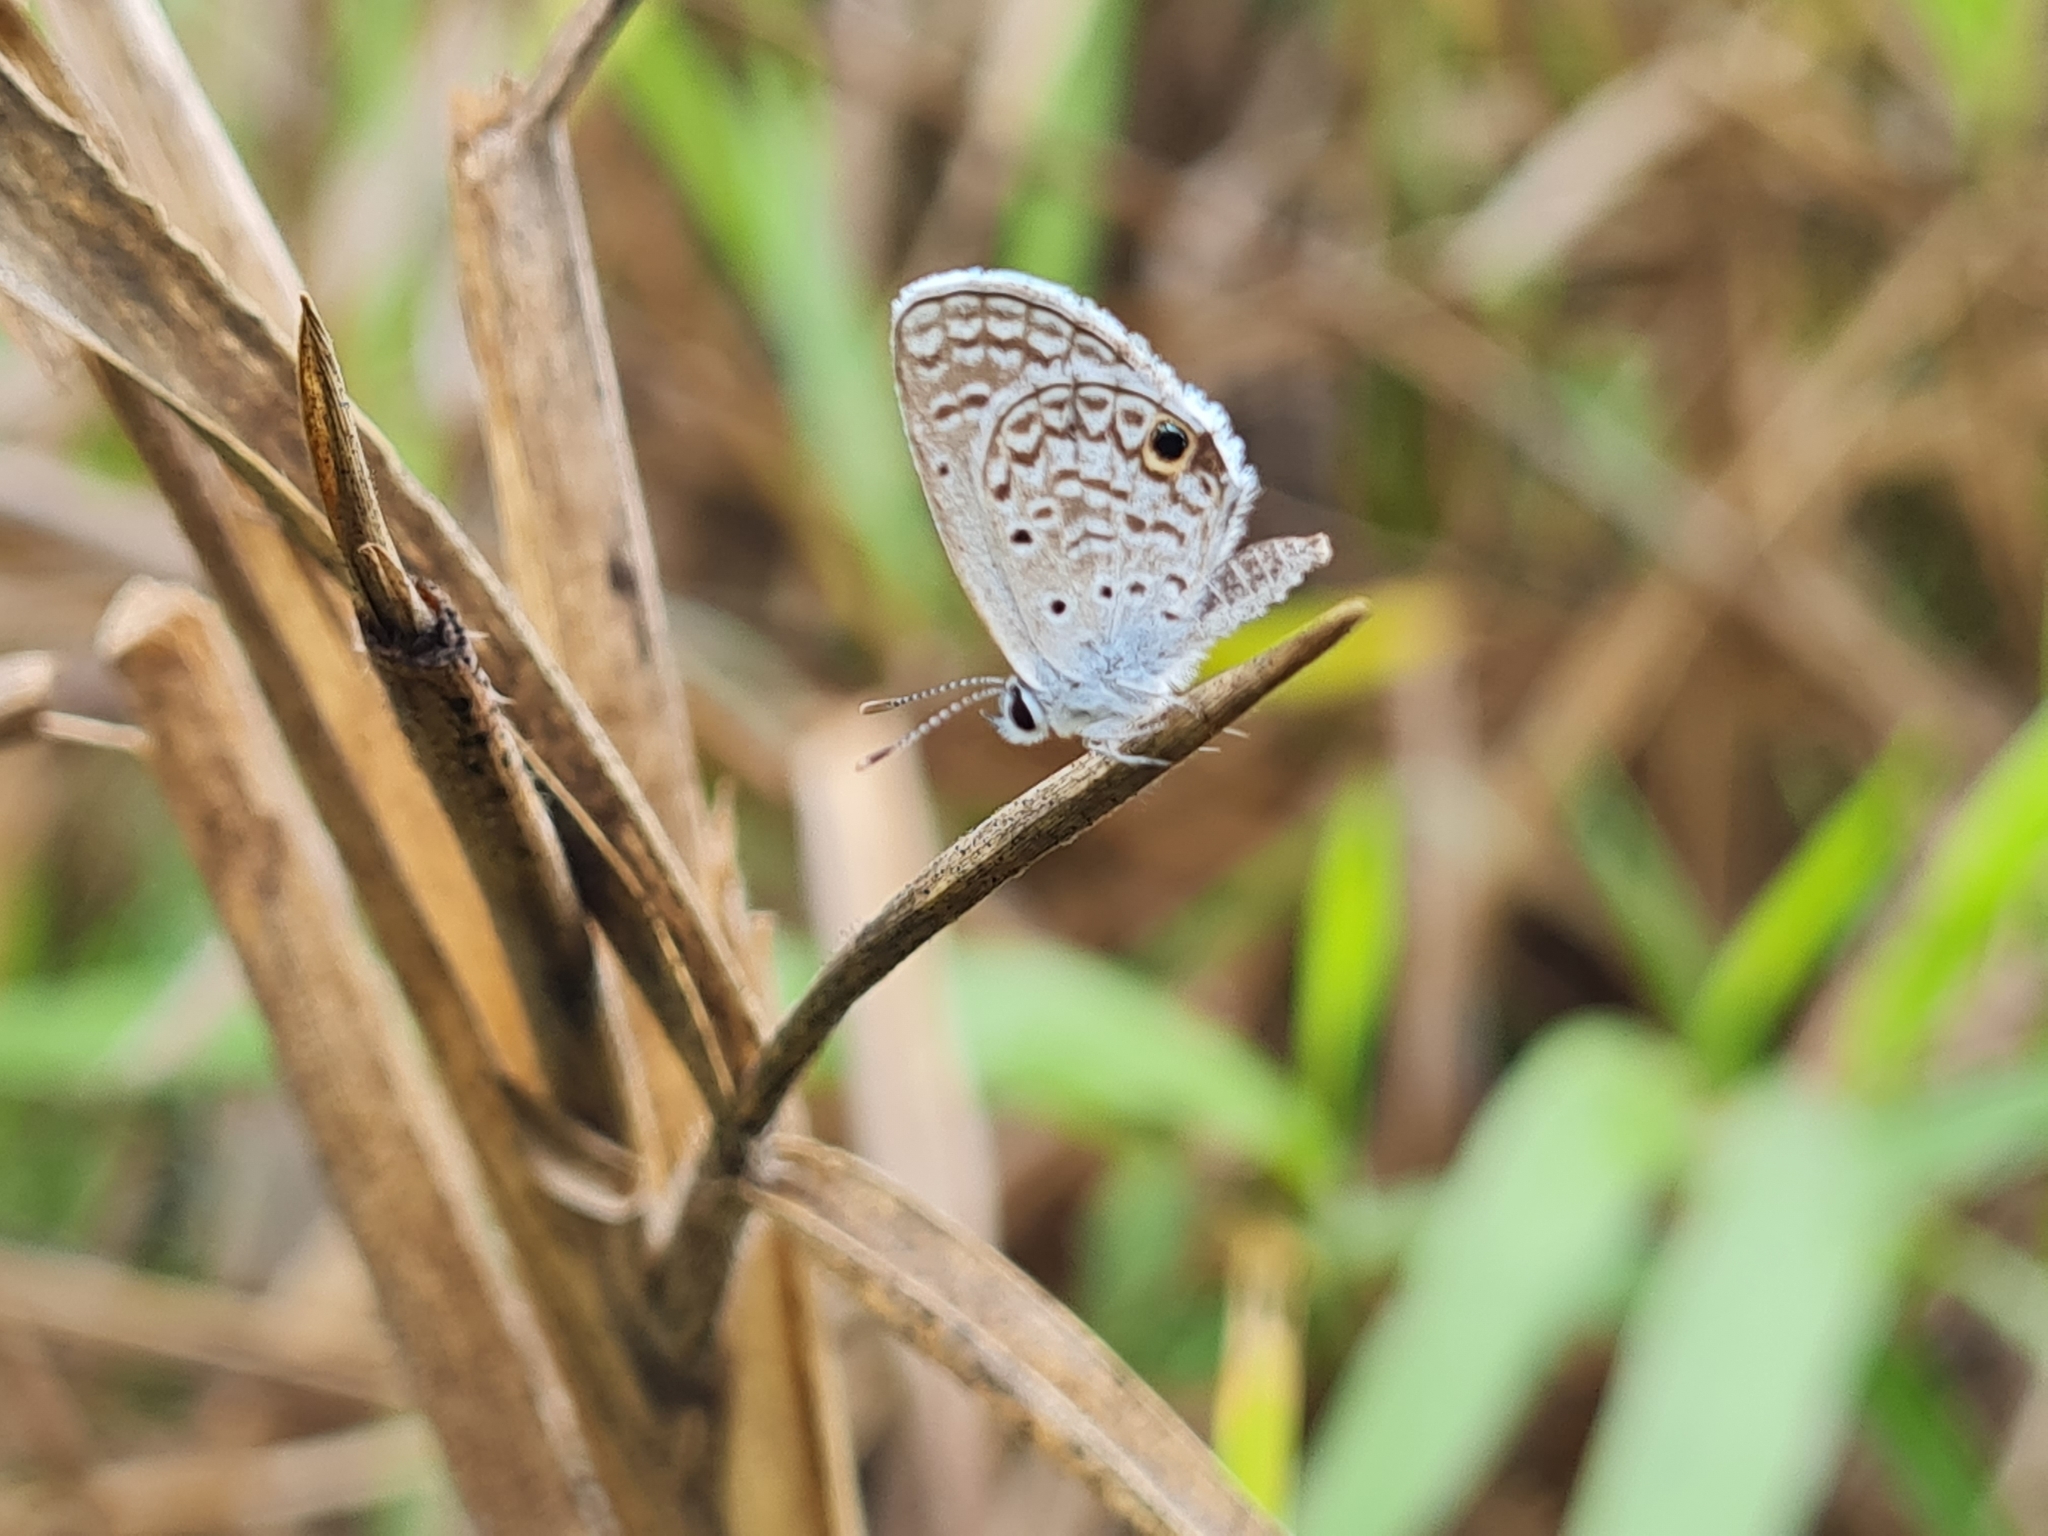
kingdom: Animalia
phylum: Arthropoda
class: Insecta
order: Lepidoptera
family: Lycaenidae
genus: Hemiargus
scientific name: Hemiargus ceraunus
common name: Ceraunus blue
